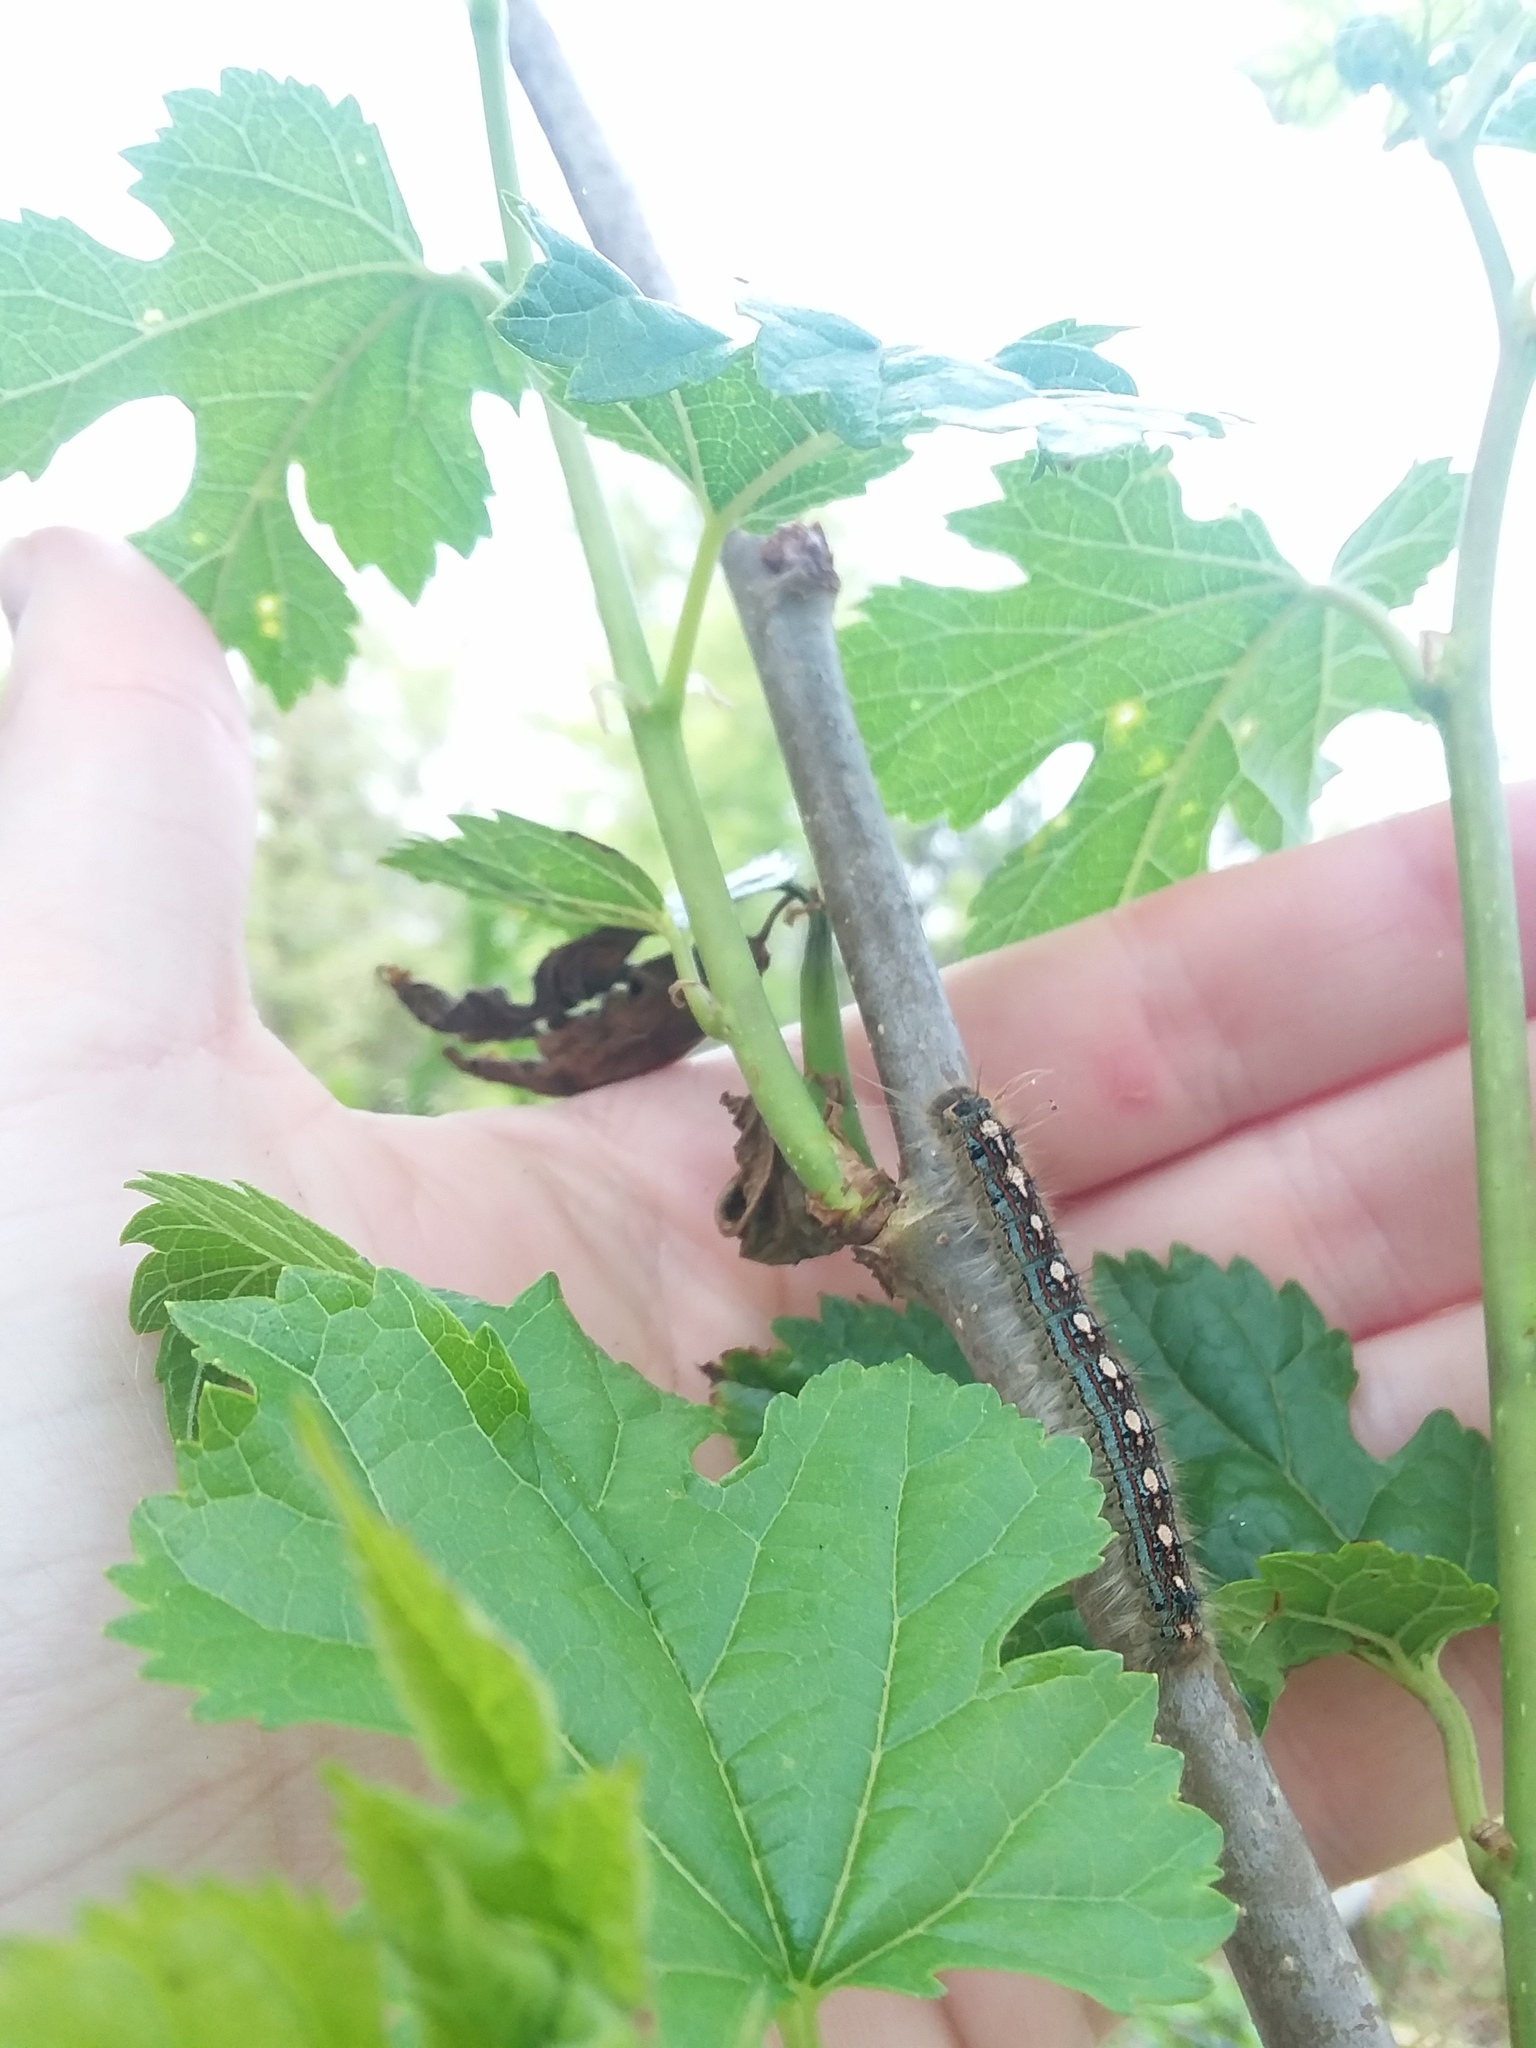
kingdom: Animalia
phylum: Arthropoda
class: Insecta
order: Lepidoptera
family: Lasiocampidae
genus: Malacosoma
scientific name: Malacosoma disstria
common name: Forest tent caterpillar
